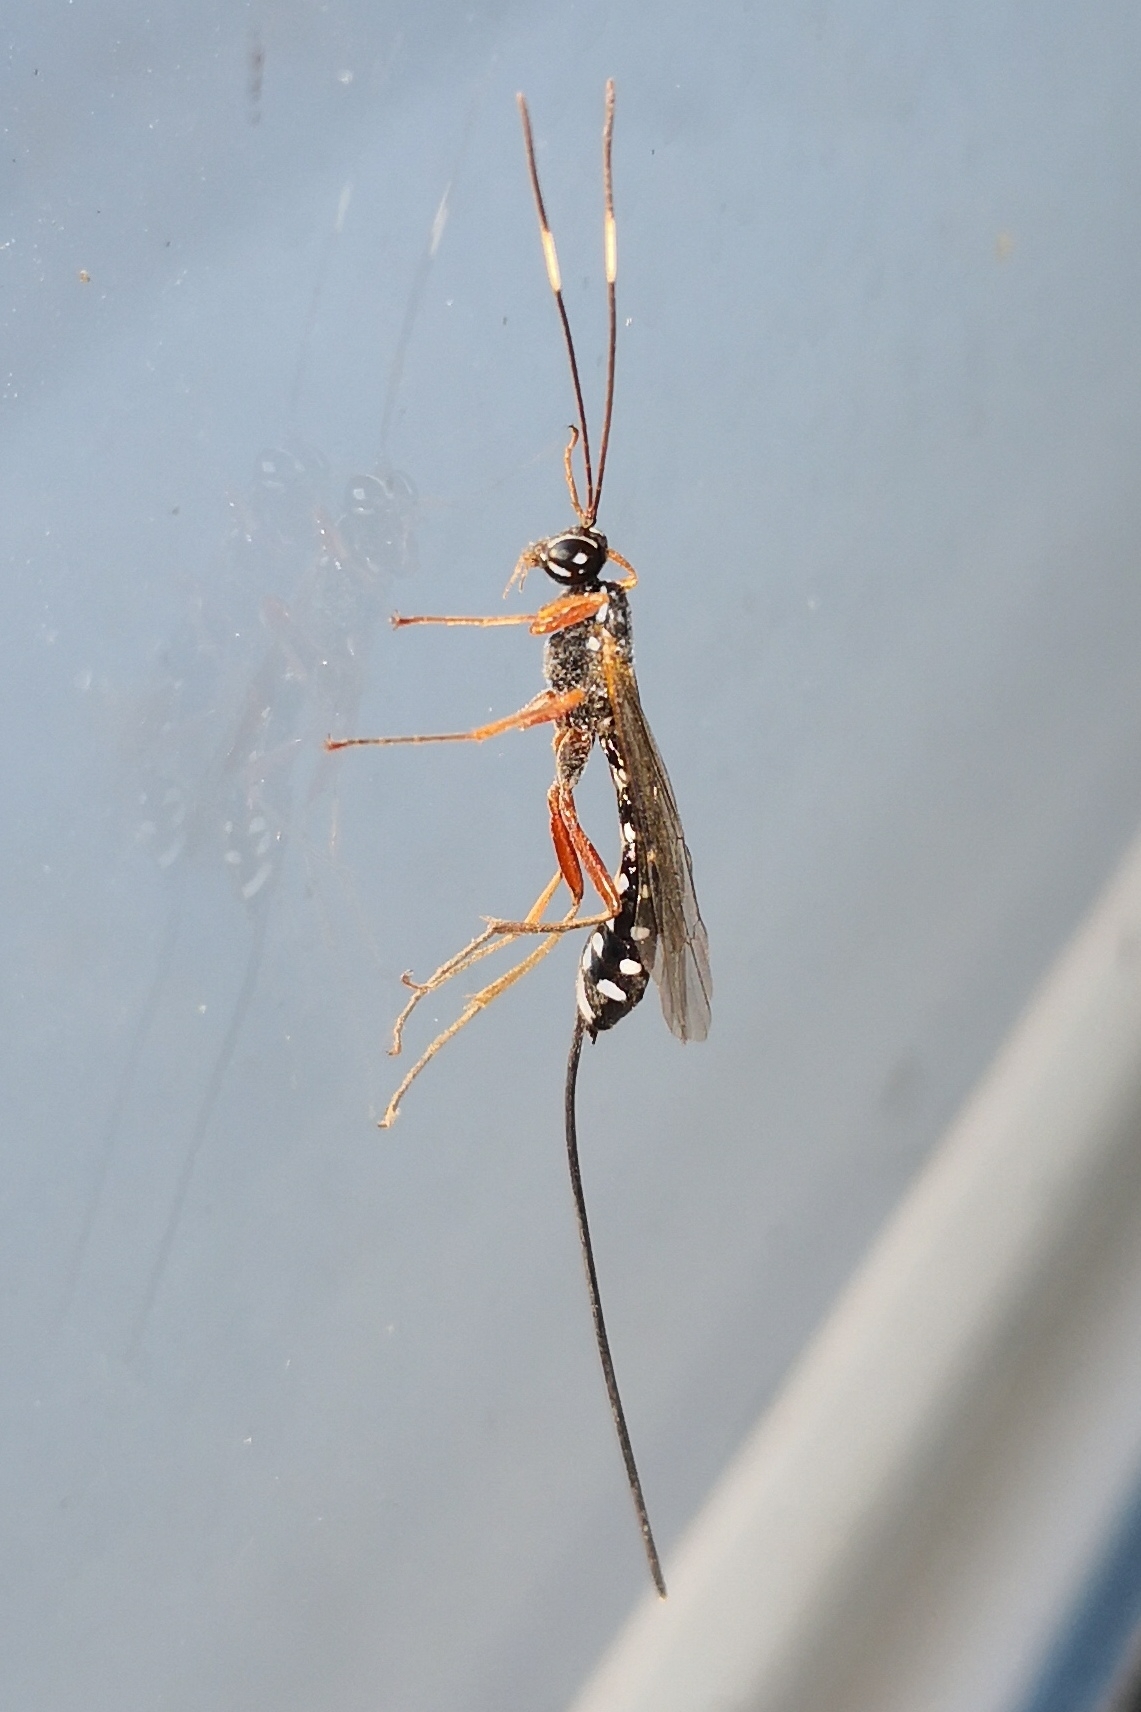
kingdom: Animalia
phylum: Arthropoda
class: Insecta
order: Hymenoptera
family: Ichneumonidae
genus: Rhyssa
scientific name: Rhyssa amoena
